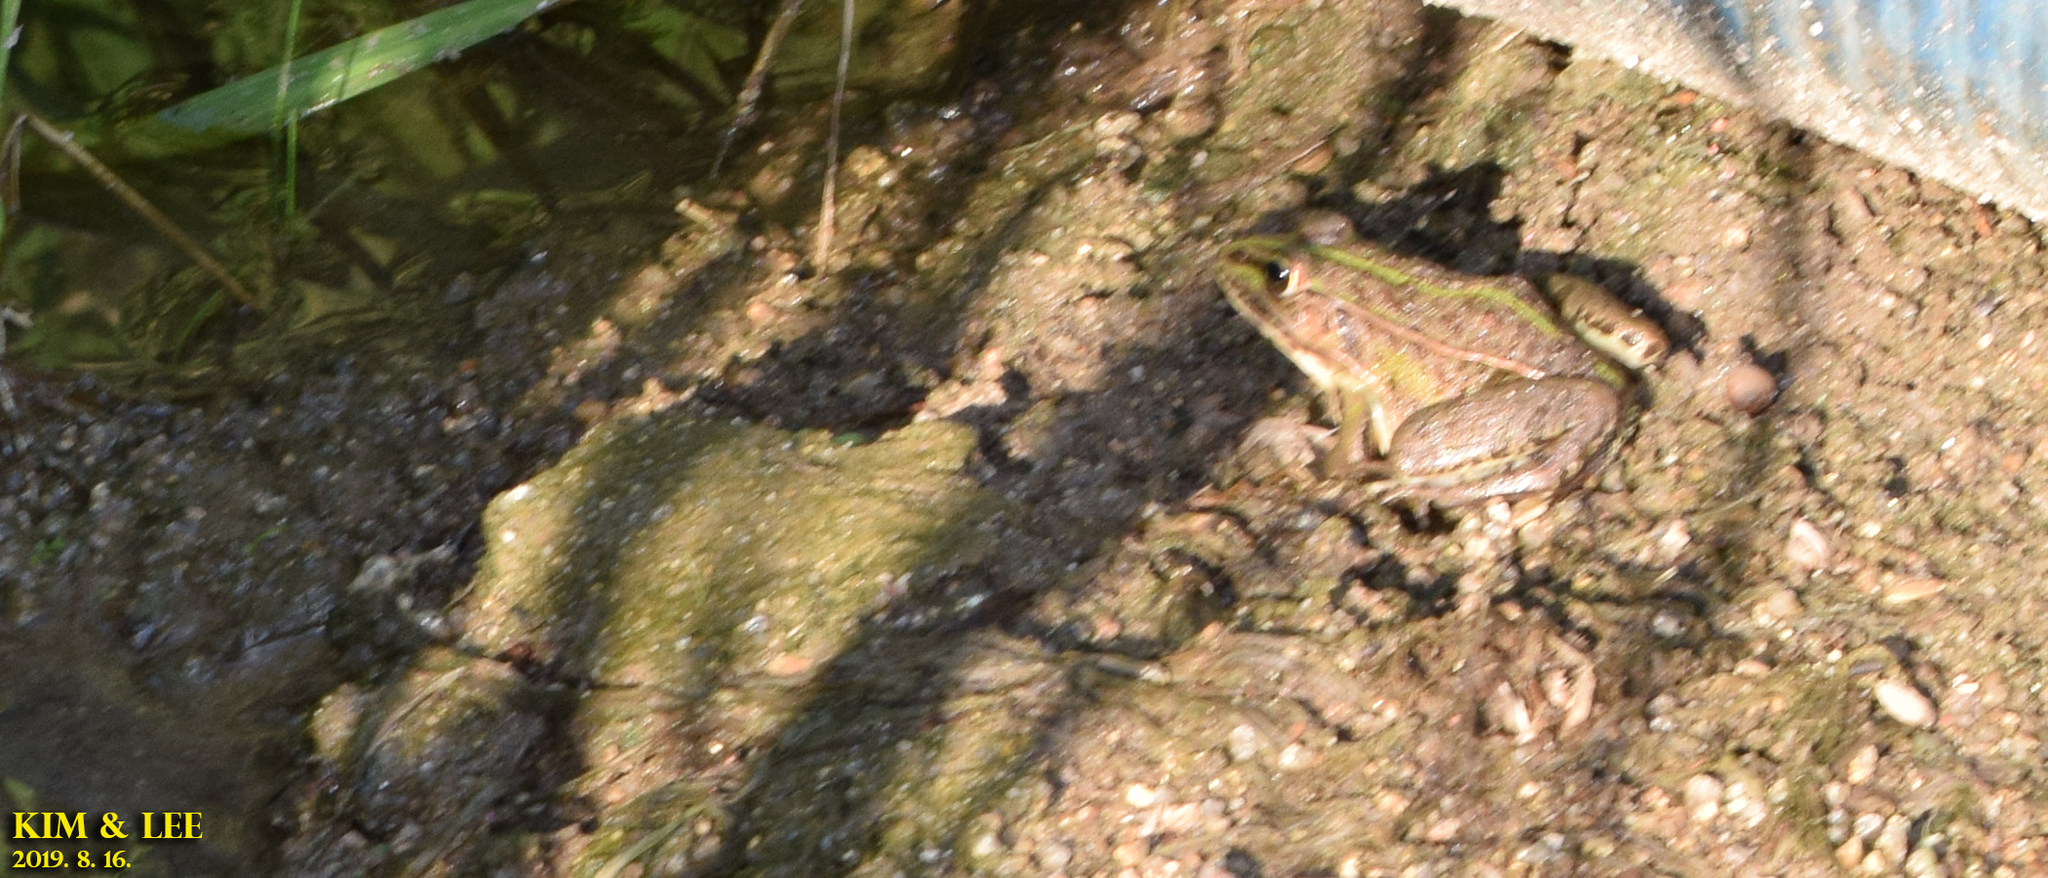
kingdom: Animalia
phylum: Chordata
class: Amphibia
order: Anura
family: Ranidae
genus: Pelophylax
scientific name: Pelophylax nigromaculatus
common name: Black-spotted pond frog
